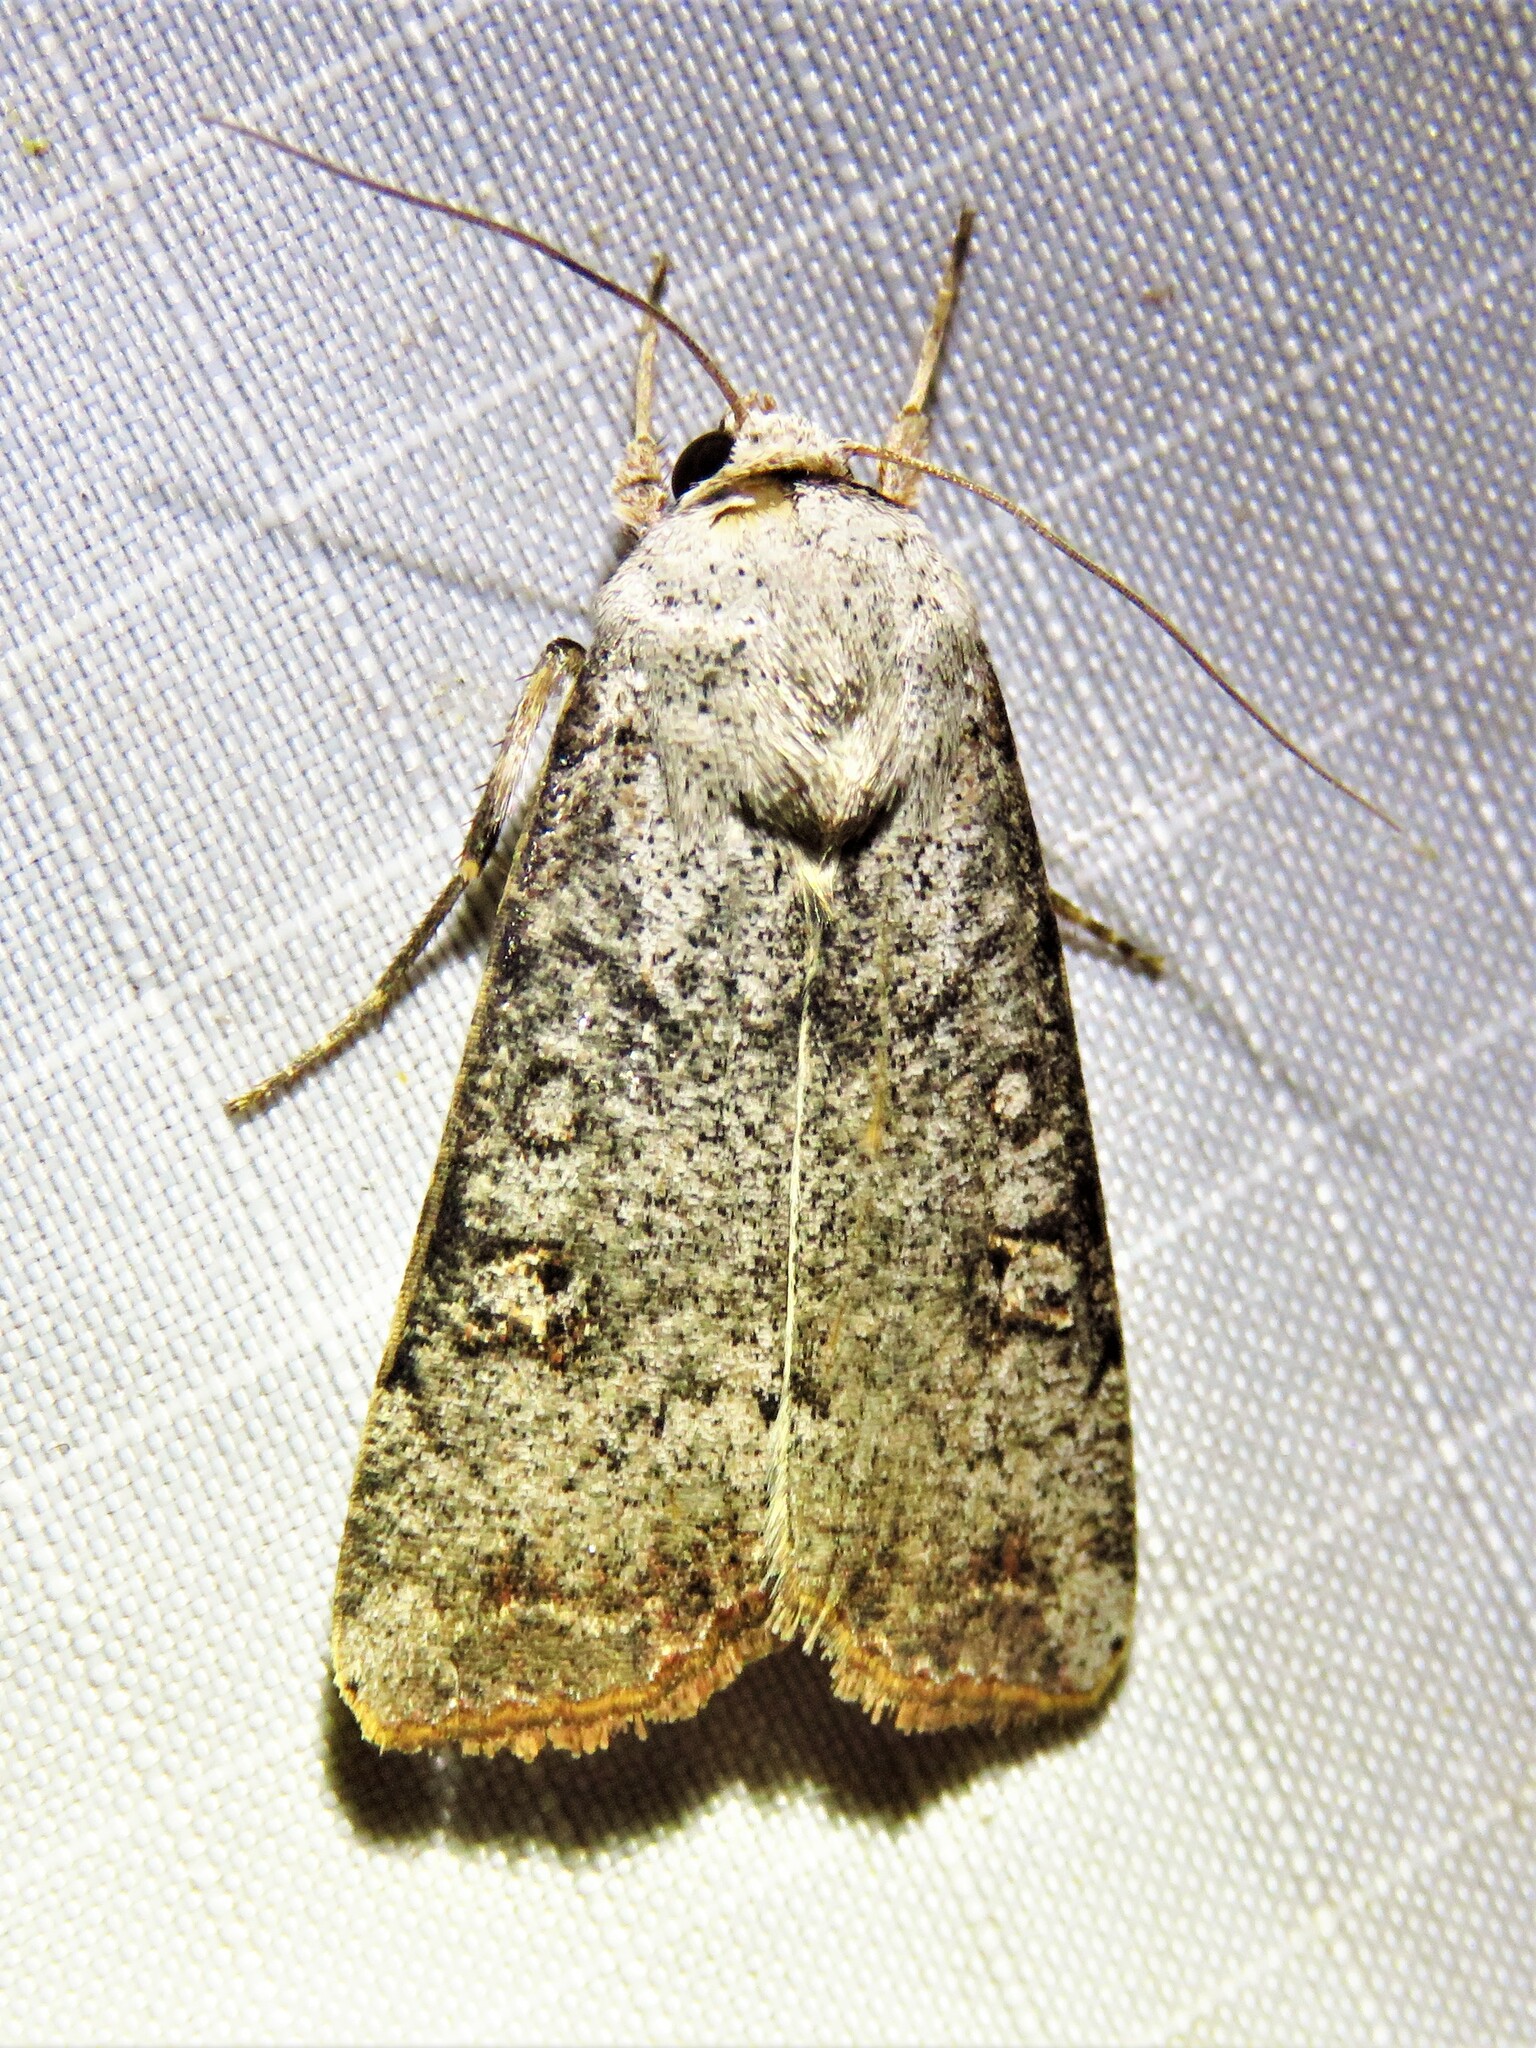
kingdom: Animalia
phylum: Arthropoda
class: Insecta
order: Lepidoptera
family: Noctuidae
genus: Anicla
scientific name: Anicla infecta
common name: Green cutworm
